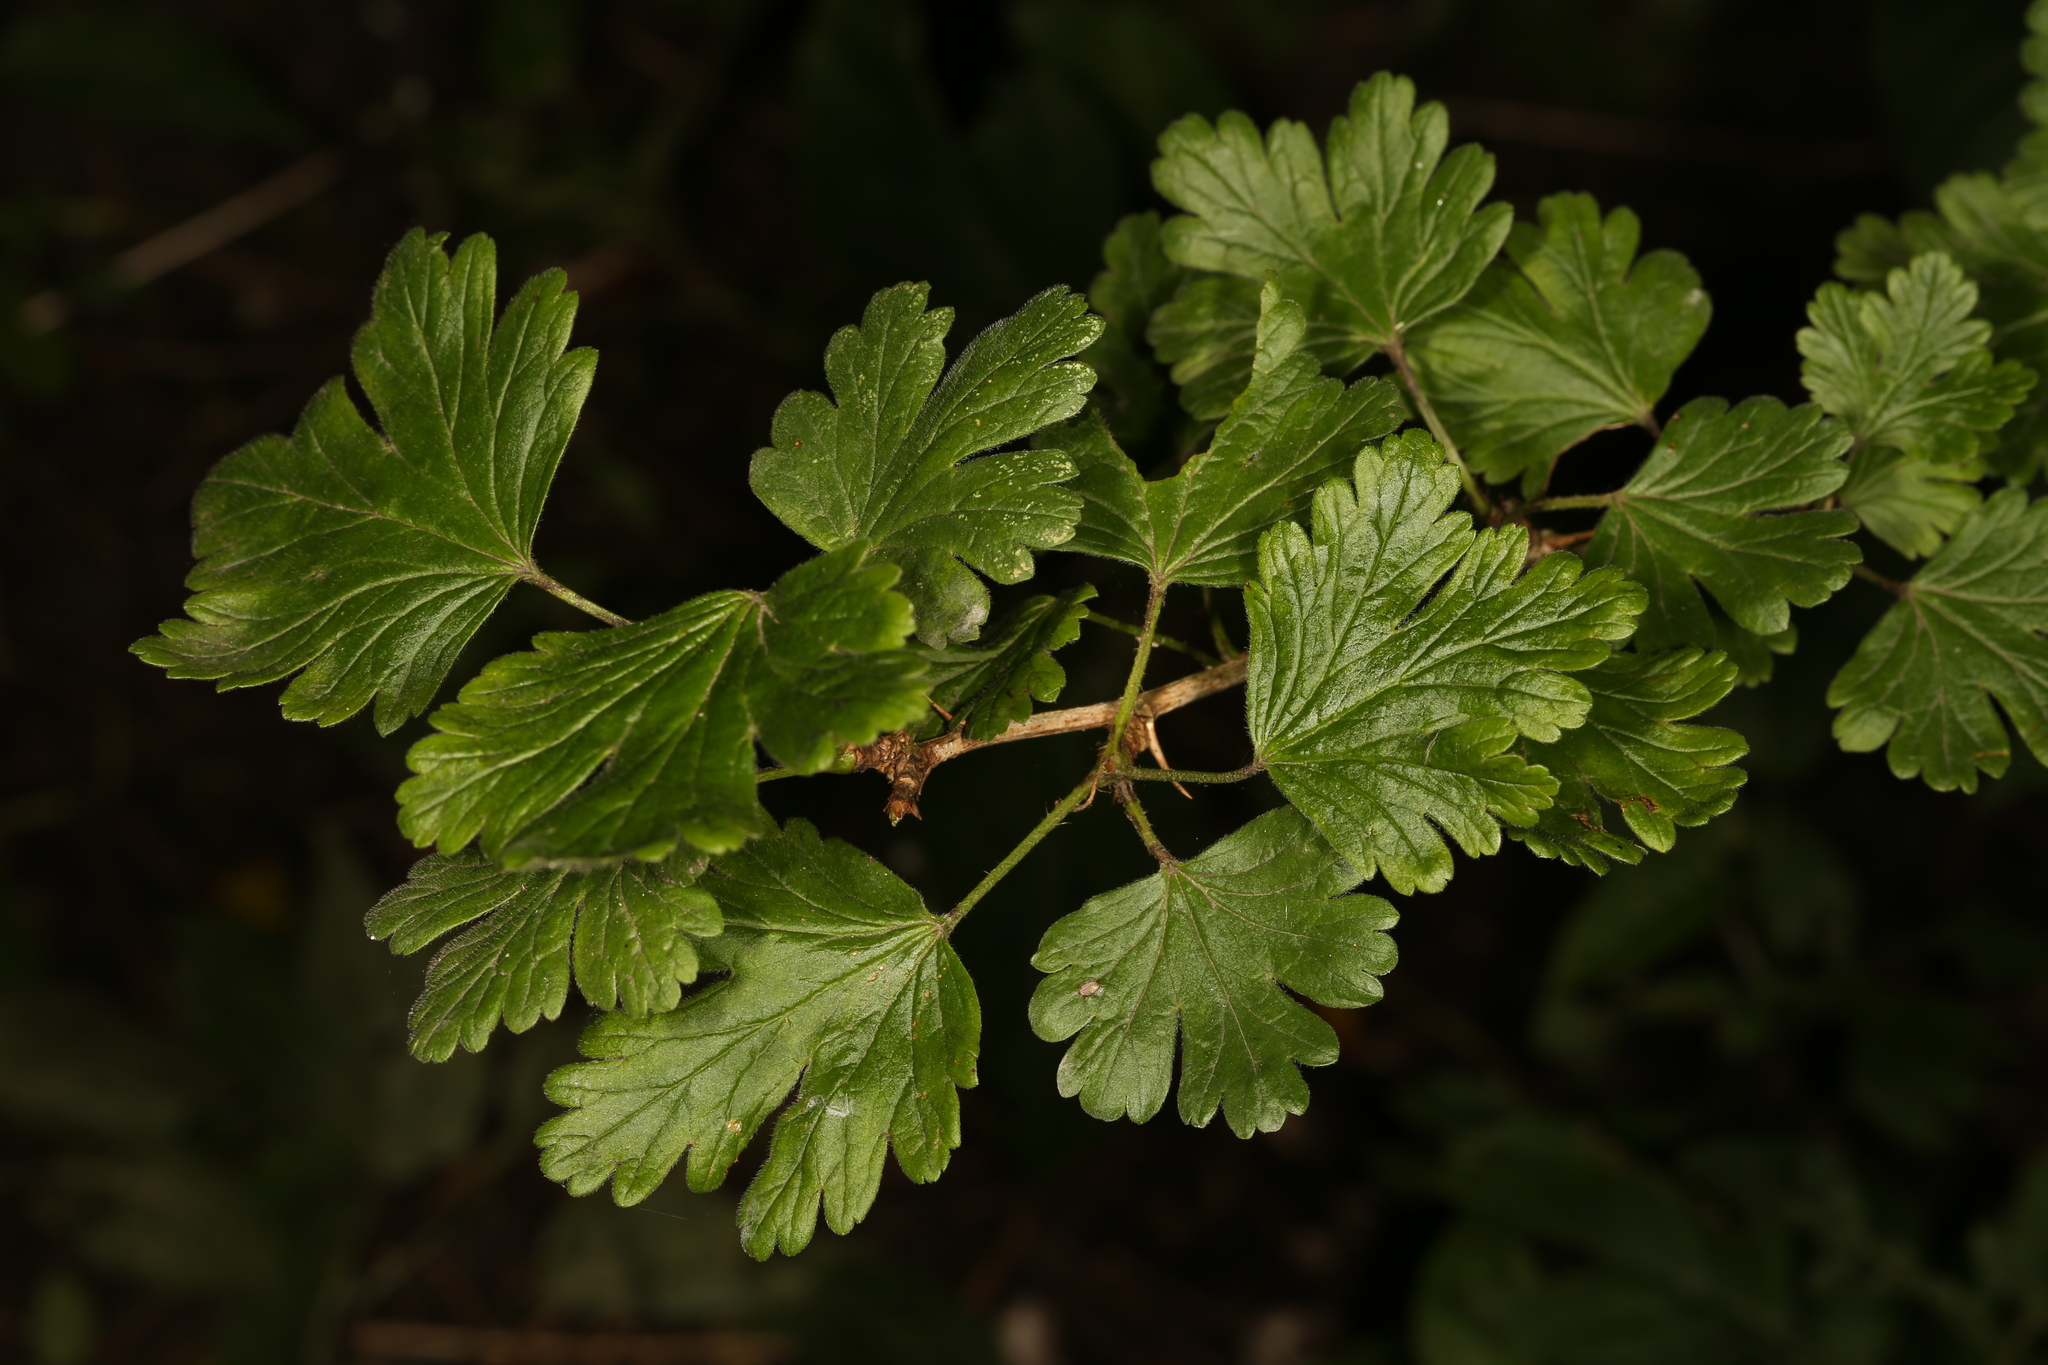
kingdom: Plantae
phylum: Tracheophyta
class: Magnoliopsida
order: Saxifragales
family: Grossulariaceae
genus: Ribes
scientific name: Ribes uva-crispa
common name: Gooseberry
